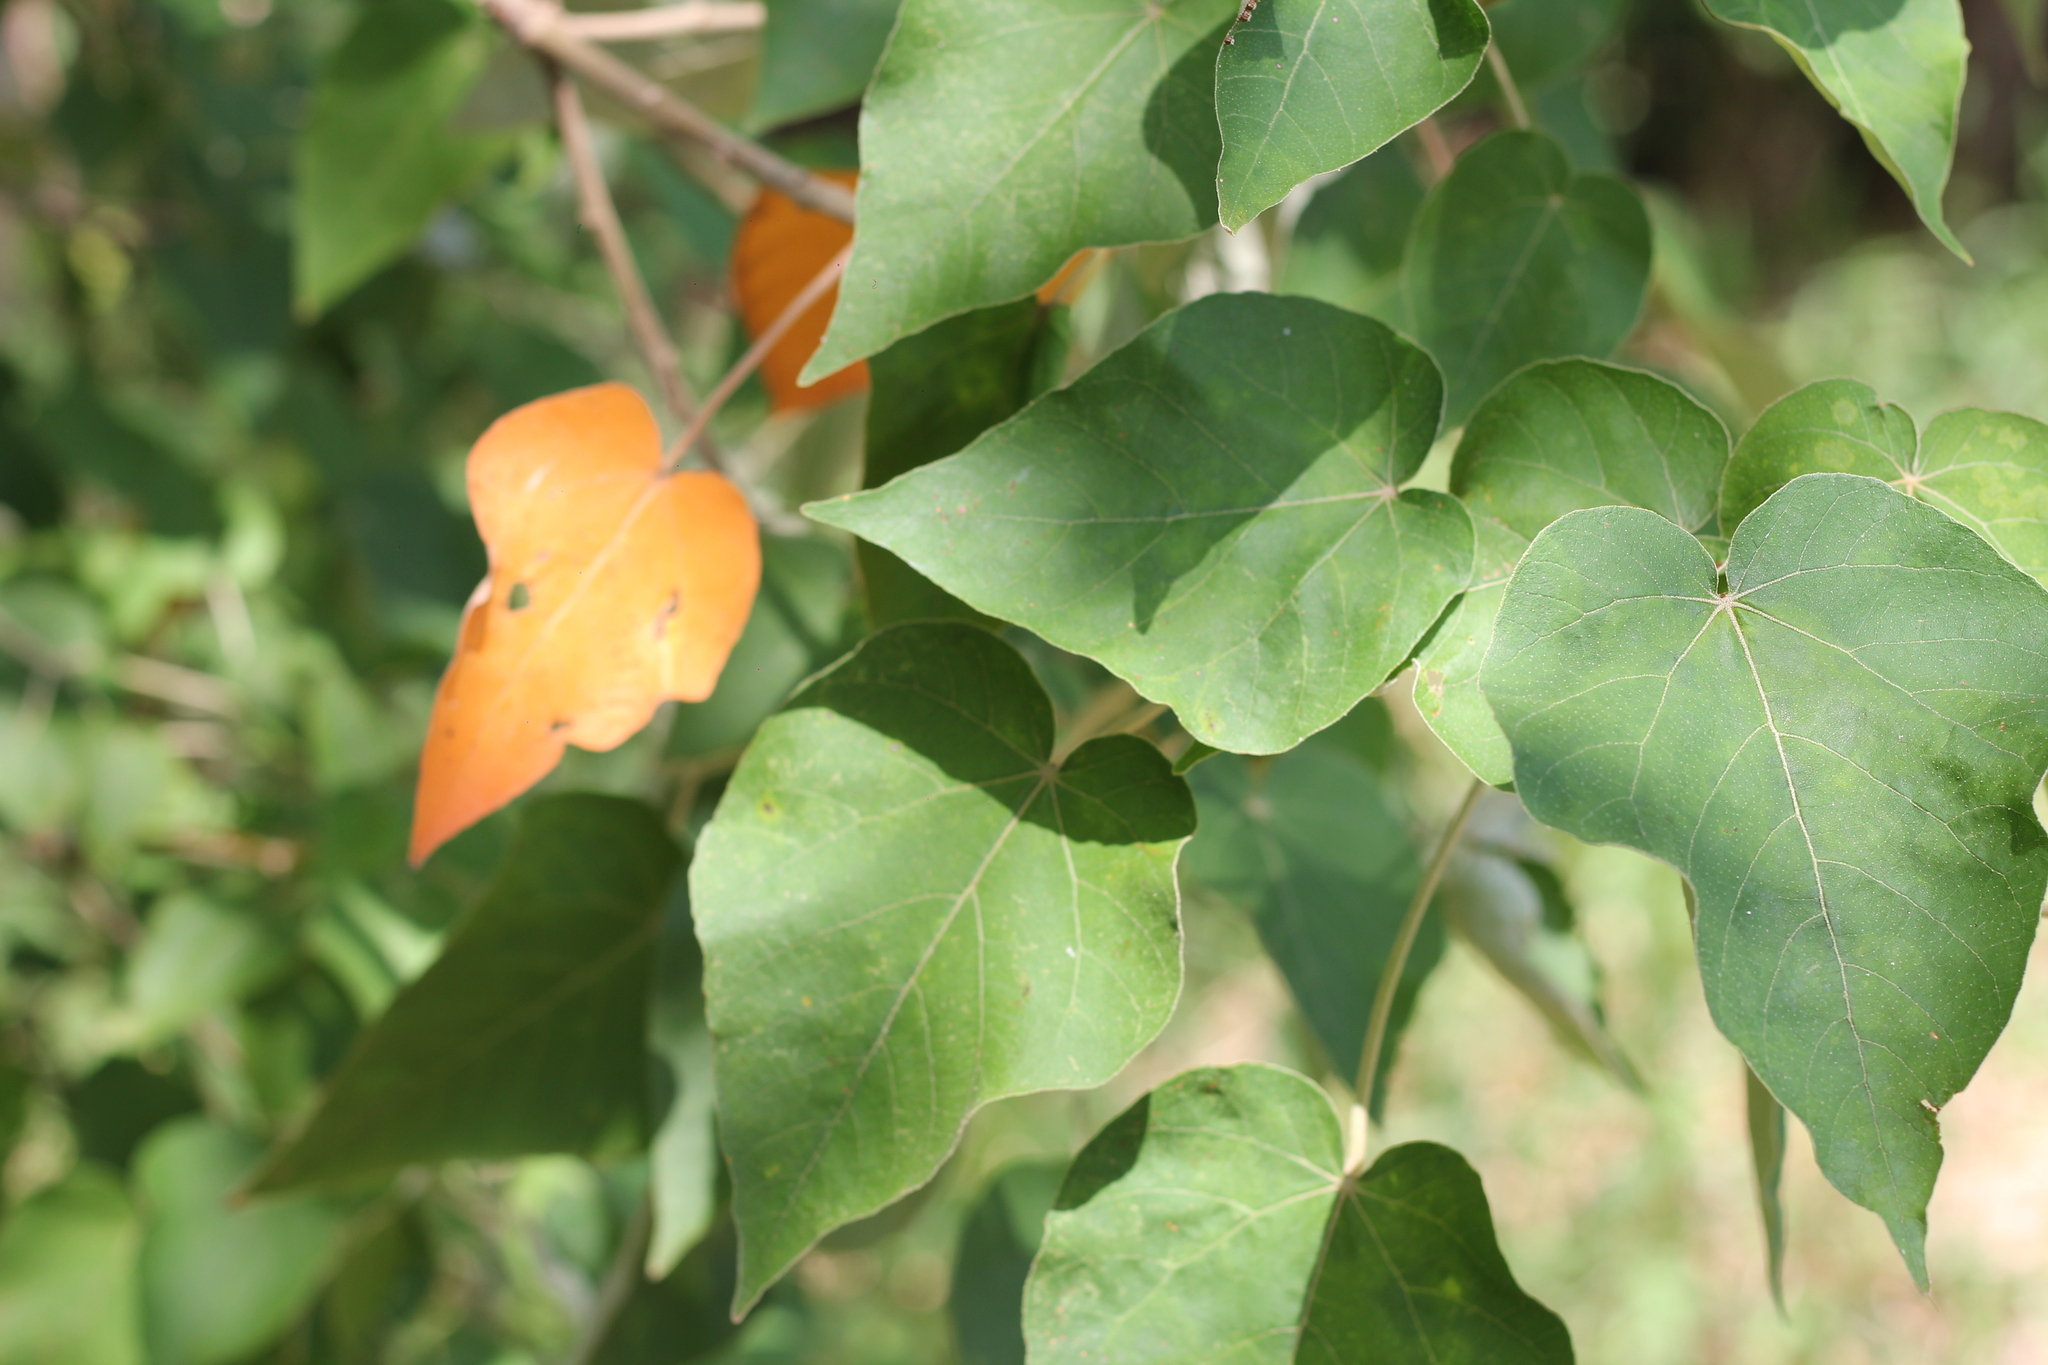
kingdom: Plantae
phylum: Tracheophyta
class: Magnoliopsida
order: Malpighiales
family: Euphorbiaceae
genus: Croton
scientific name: Croton urucurana
